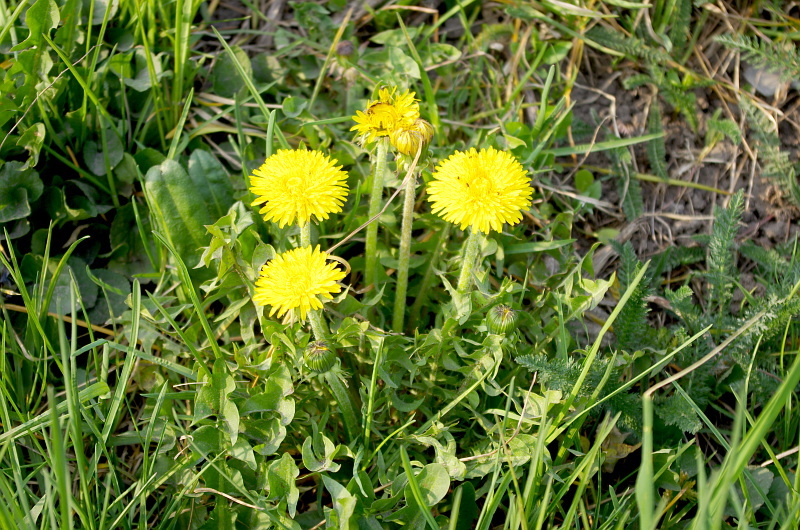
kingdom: Plantae
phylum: Tracheophyta
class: Magnoliopsida
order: Asterales
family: Asteraceae
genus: Taraxacum
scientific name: Taraxacum officinale
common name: Common dandelion
